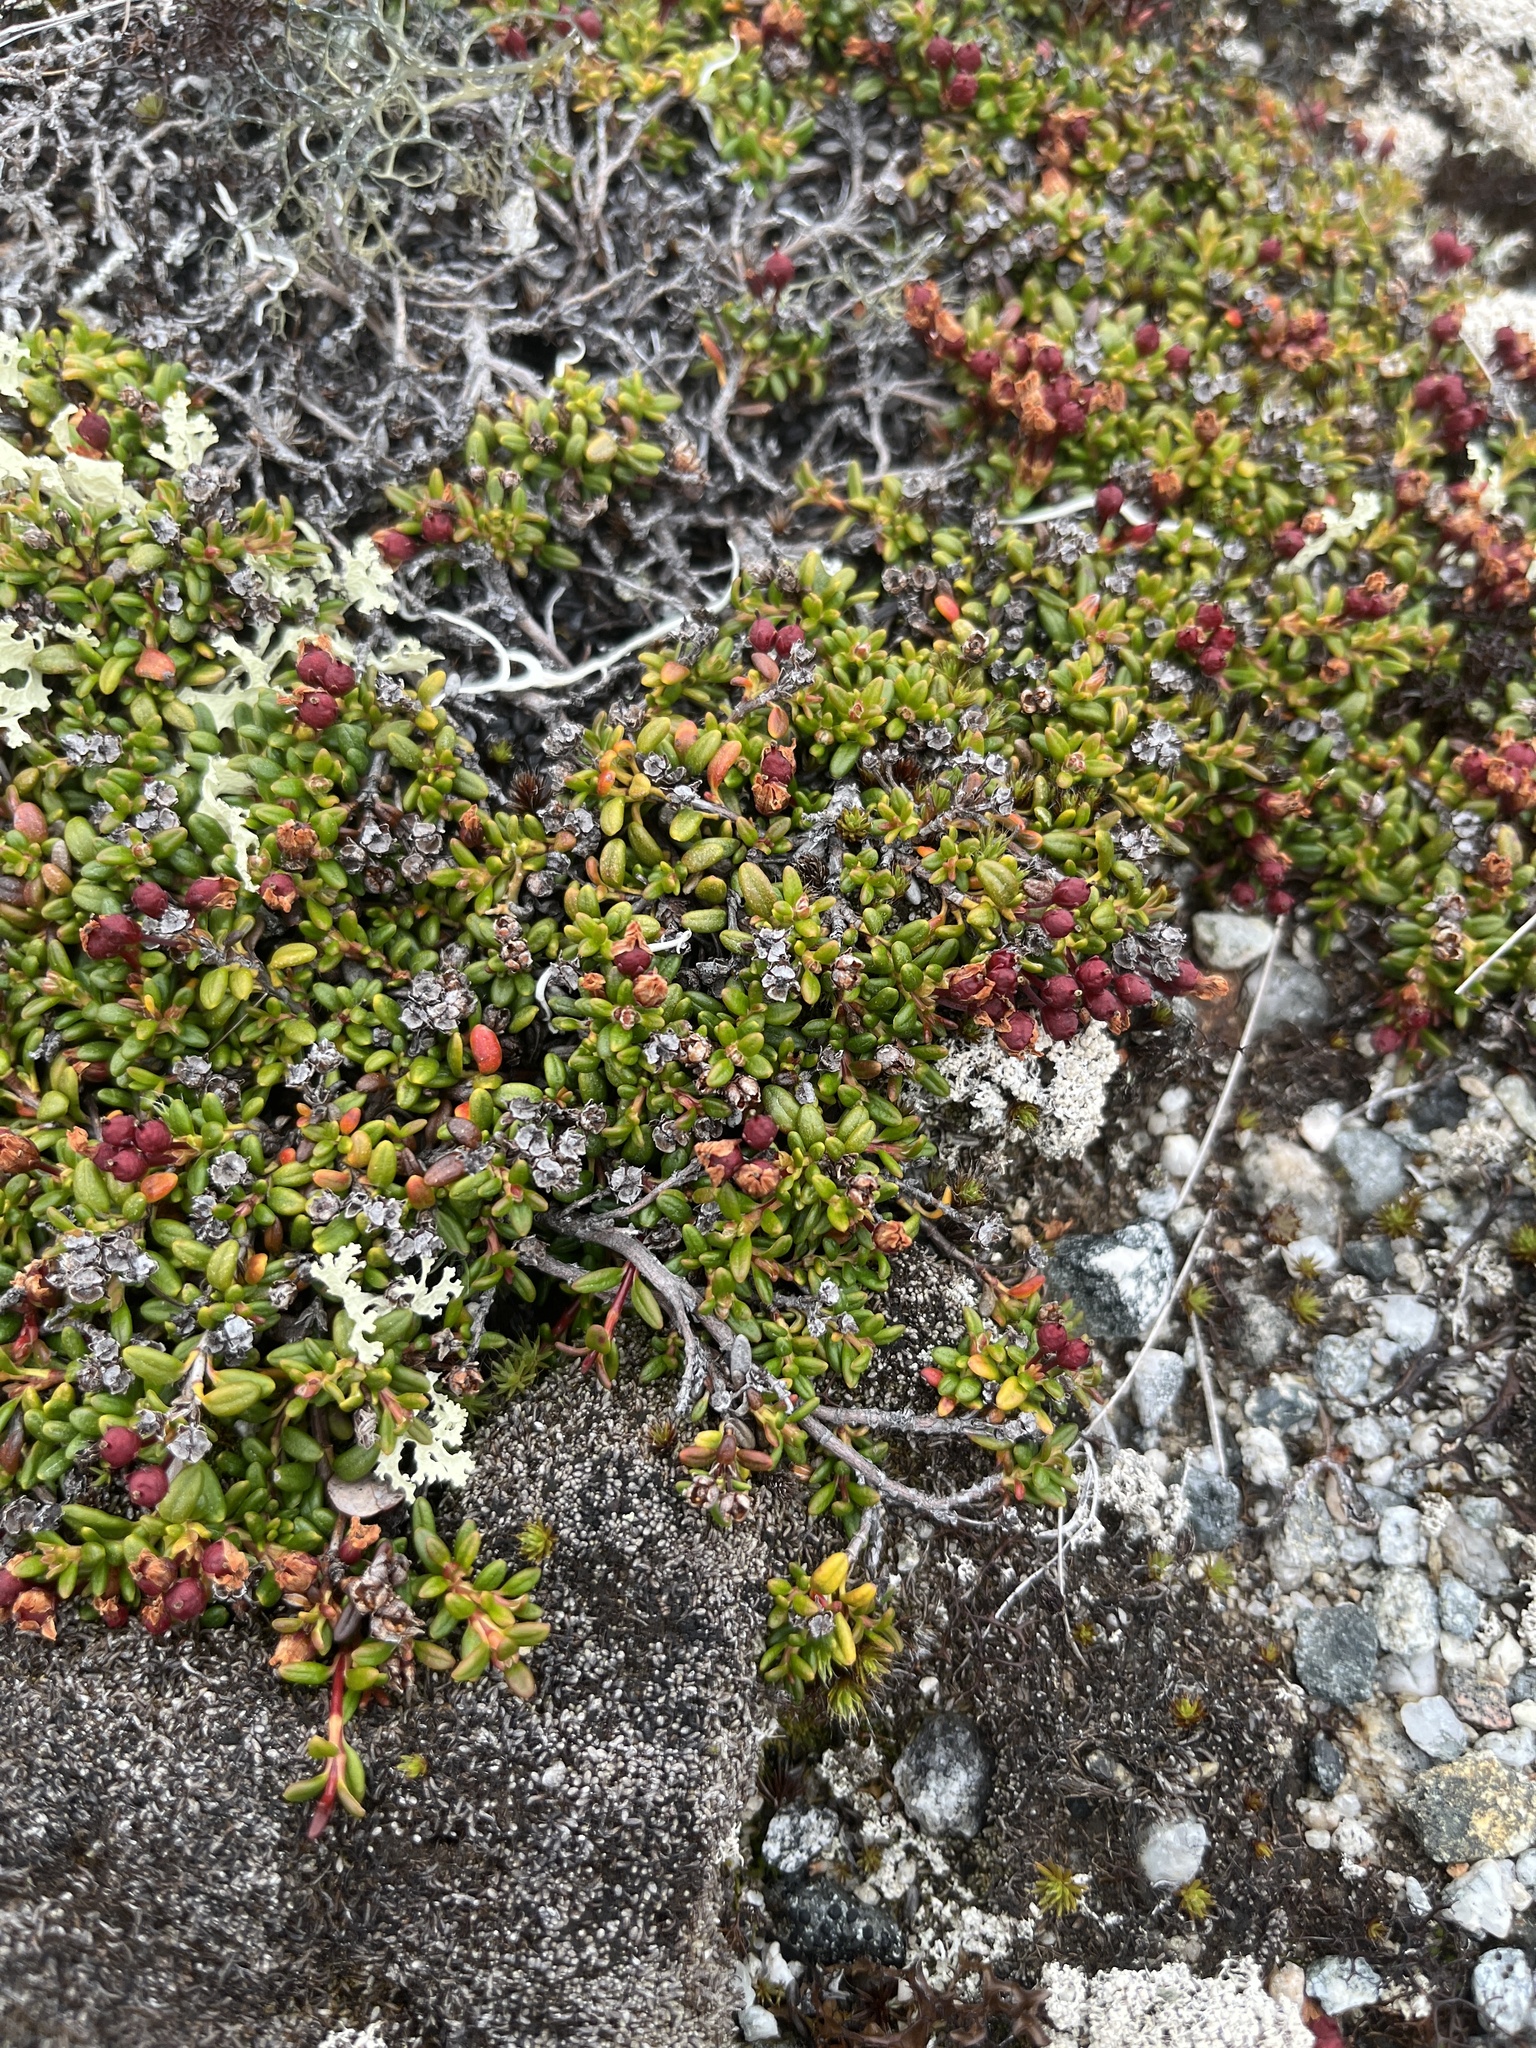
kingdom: Plantae
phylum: Tracheophyta
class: Magnoliopsida
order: Ericales
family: Ericaceae
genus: Kalmia
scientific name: Kalmia procumbens
